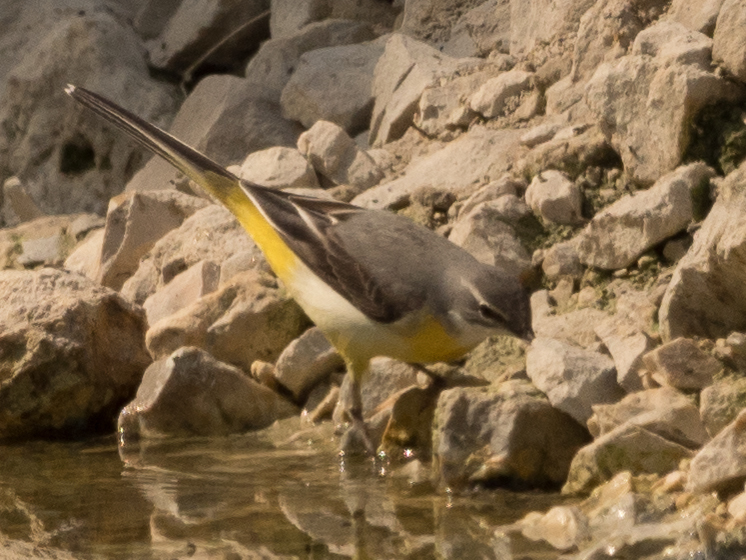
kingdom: Animalia
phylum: Chordata
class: Aves
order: Passeriformes
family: Motacillidae
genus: Motacilla
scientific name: Motacilla cinerea
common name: Grey wagtail
